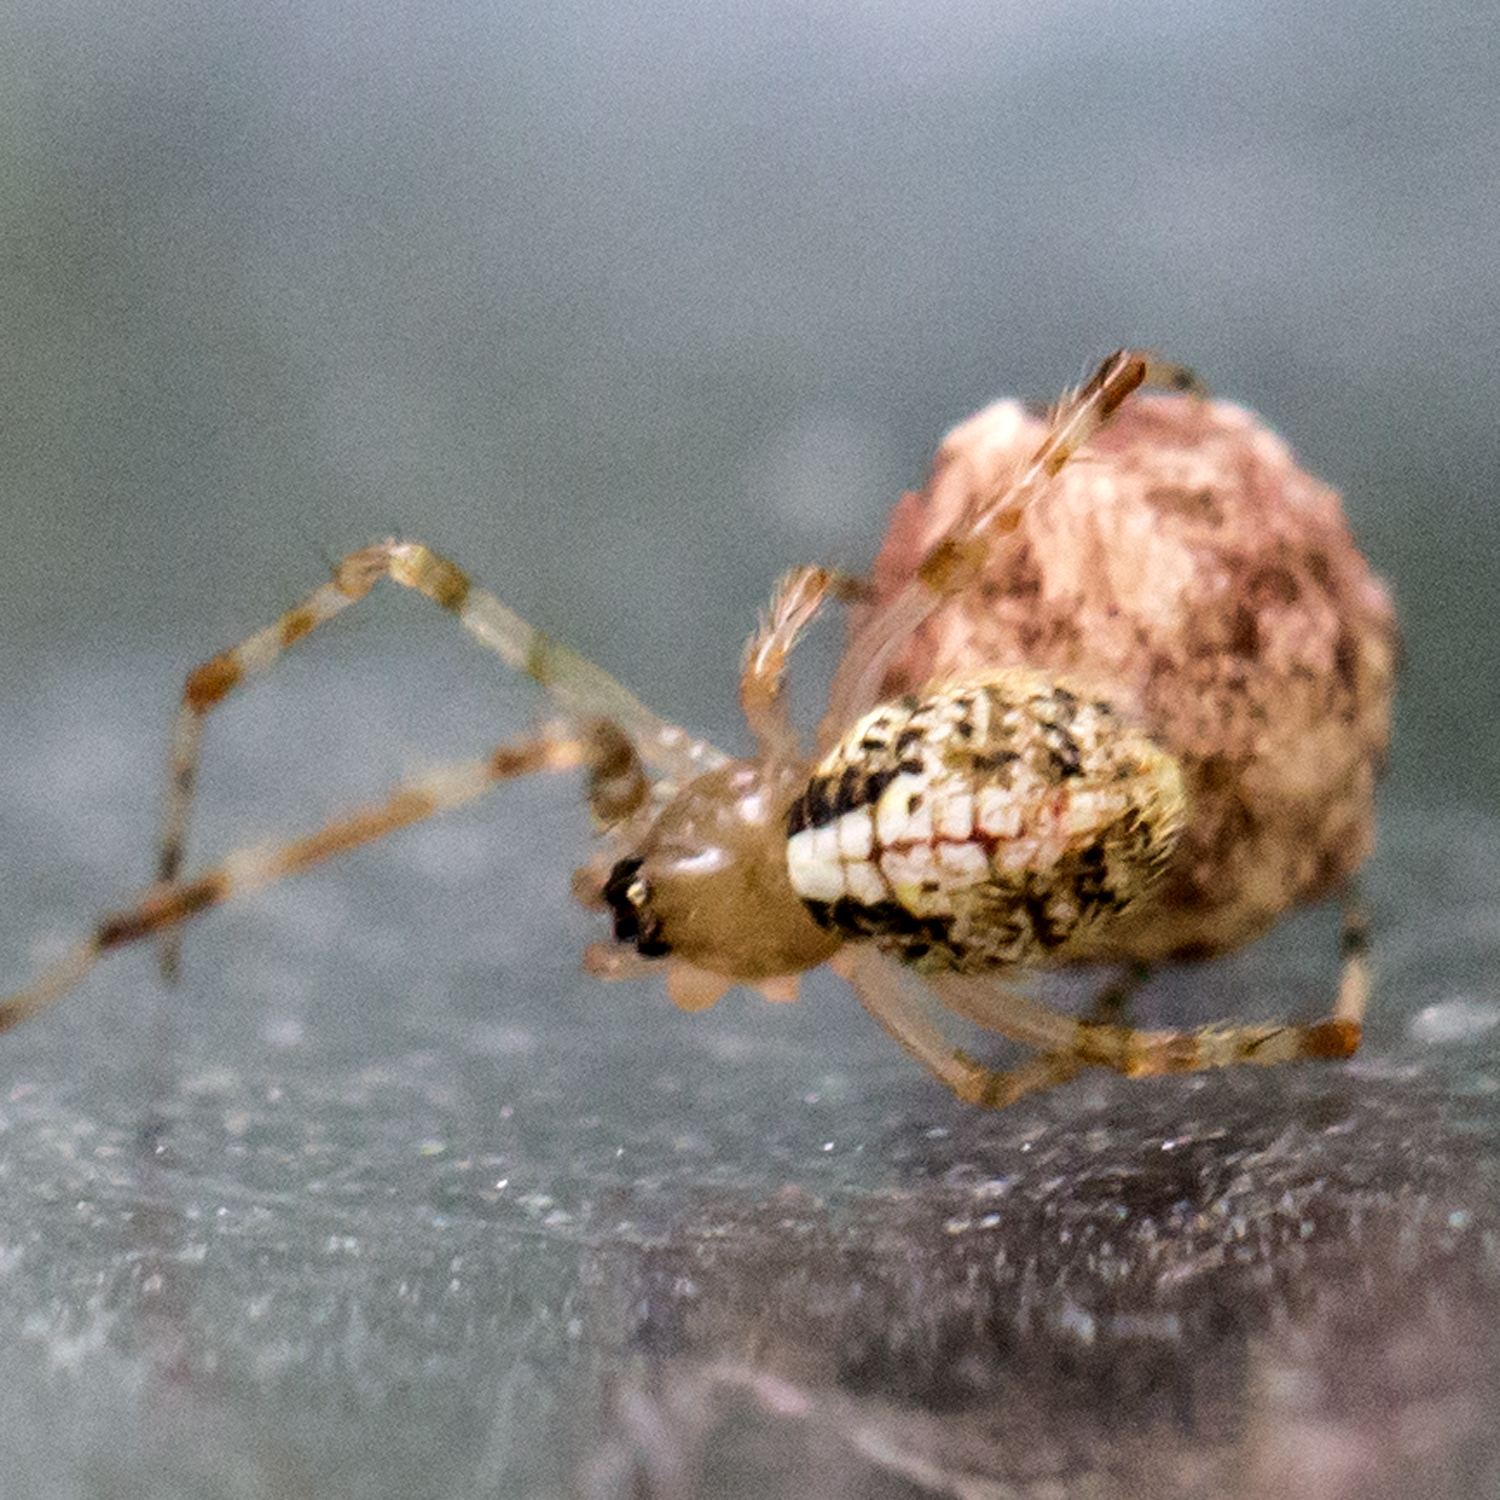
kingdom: Animalia
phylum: Arthropoda
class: Arachnida
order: Araneae
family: Theridiidae
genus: Yunohamella
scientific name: Yunohamella lyrica
